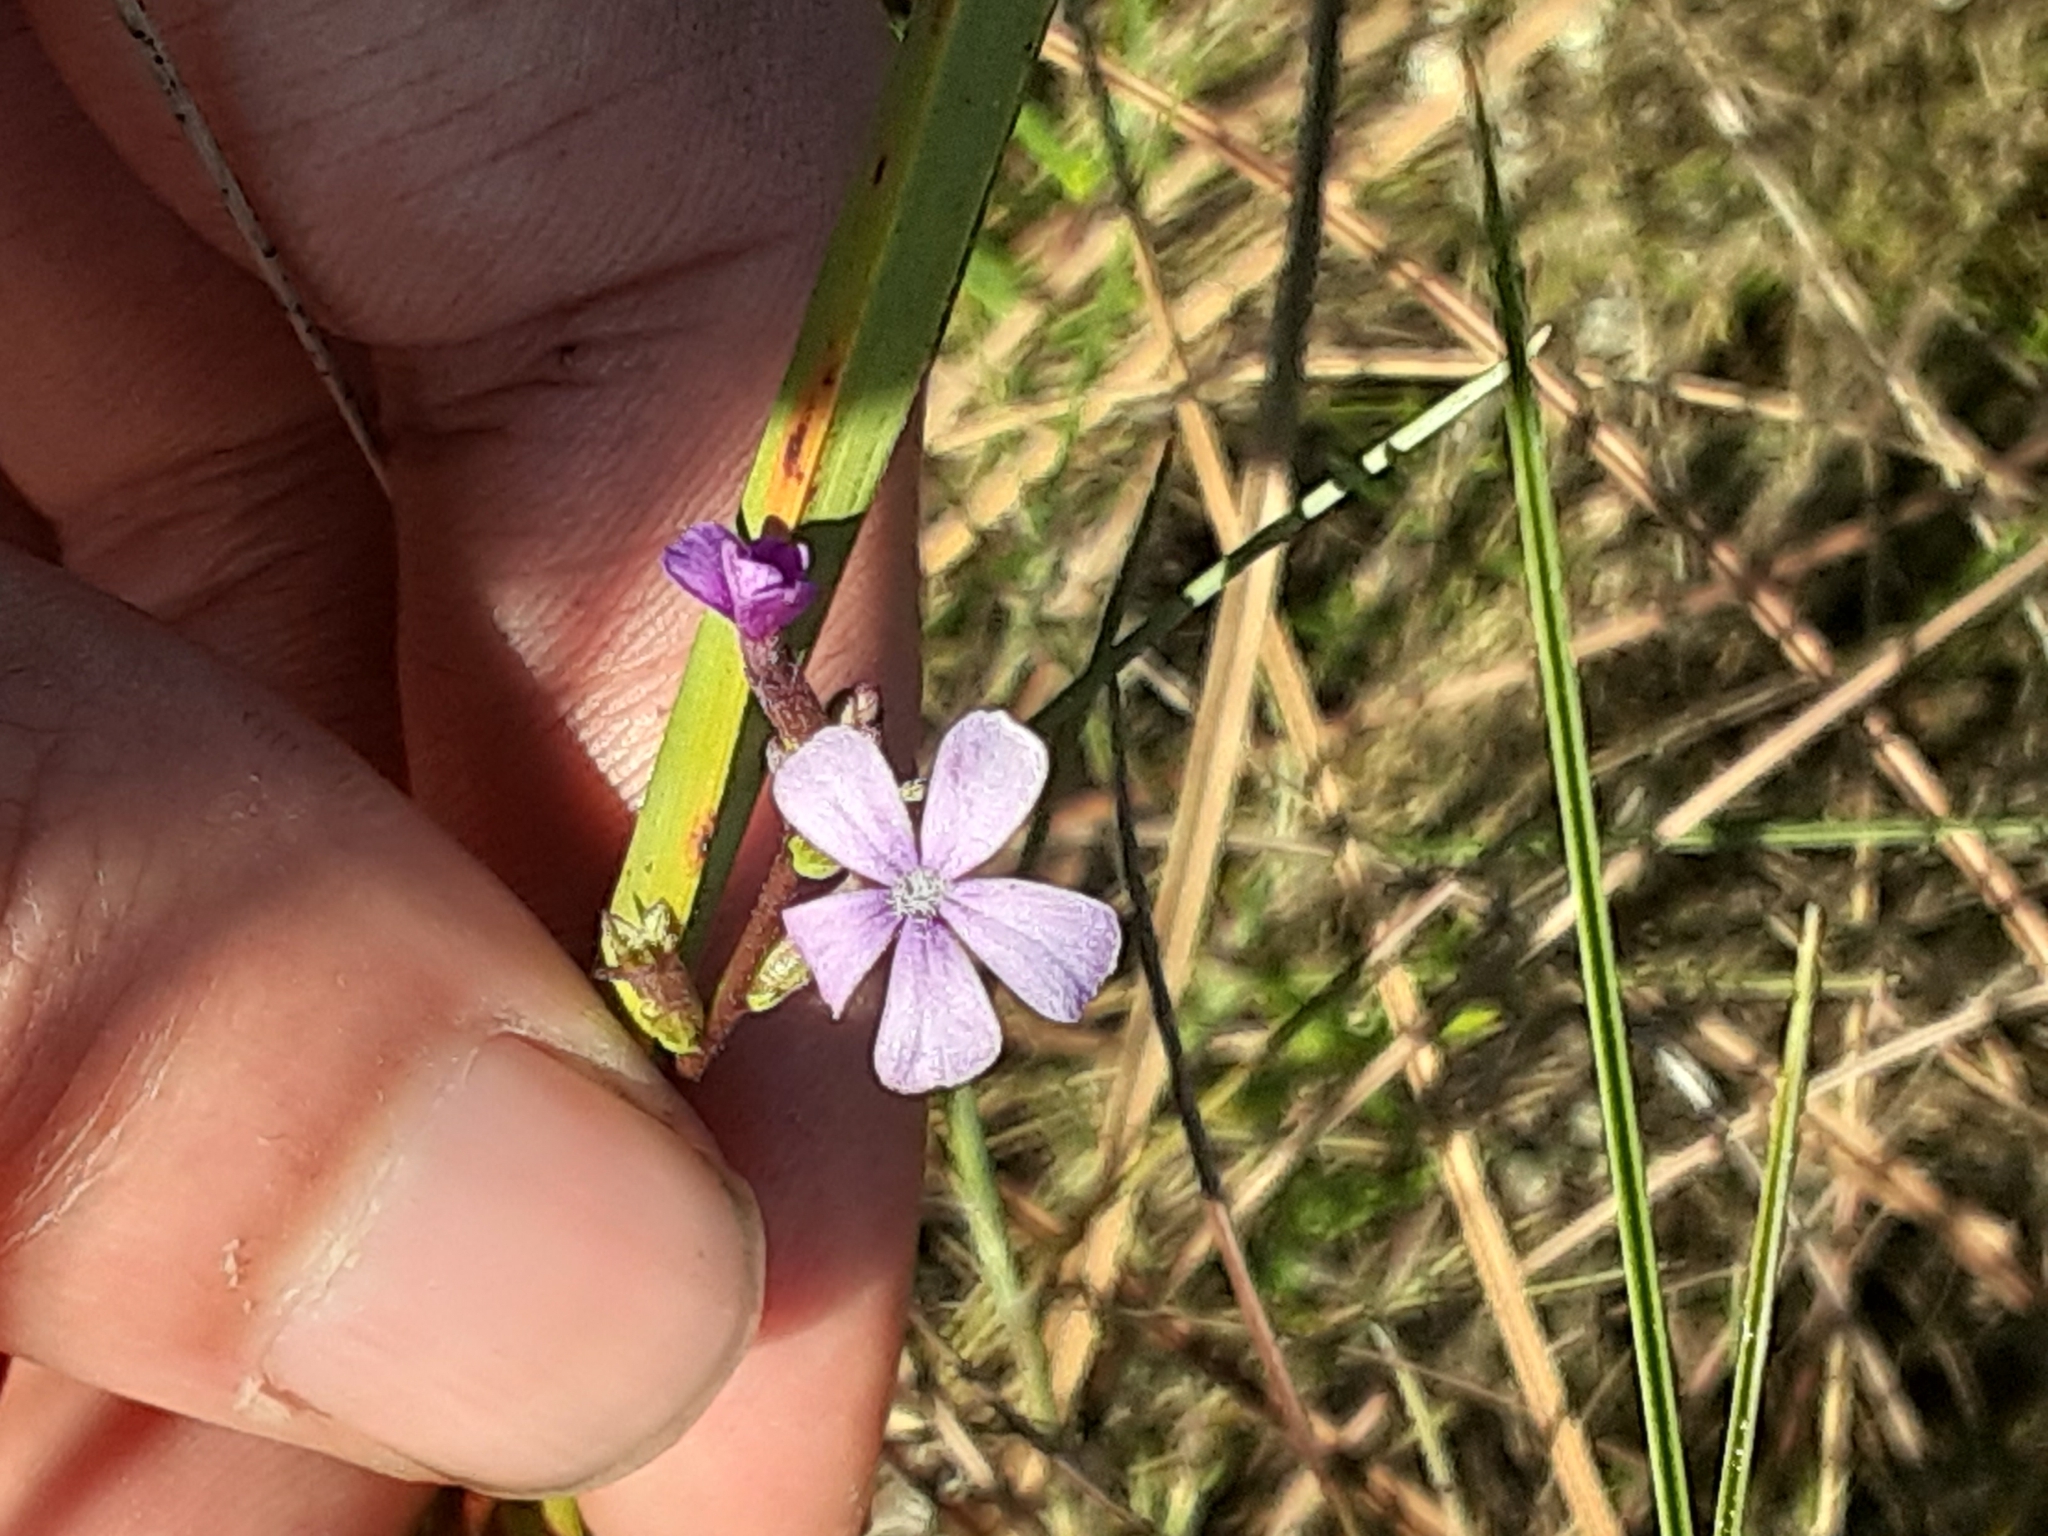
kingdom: Plantae
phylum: Tracheophyta
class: Magnoliopsida
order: Lamiales
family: Orobanchaceae
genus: Buchnera
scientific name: Buchnera floridana
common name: Florida bluehearts
